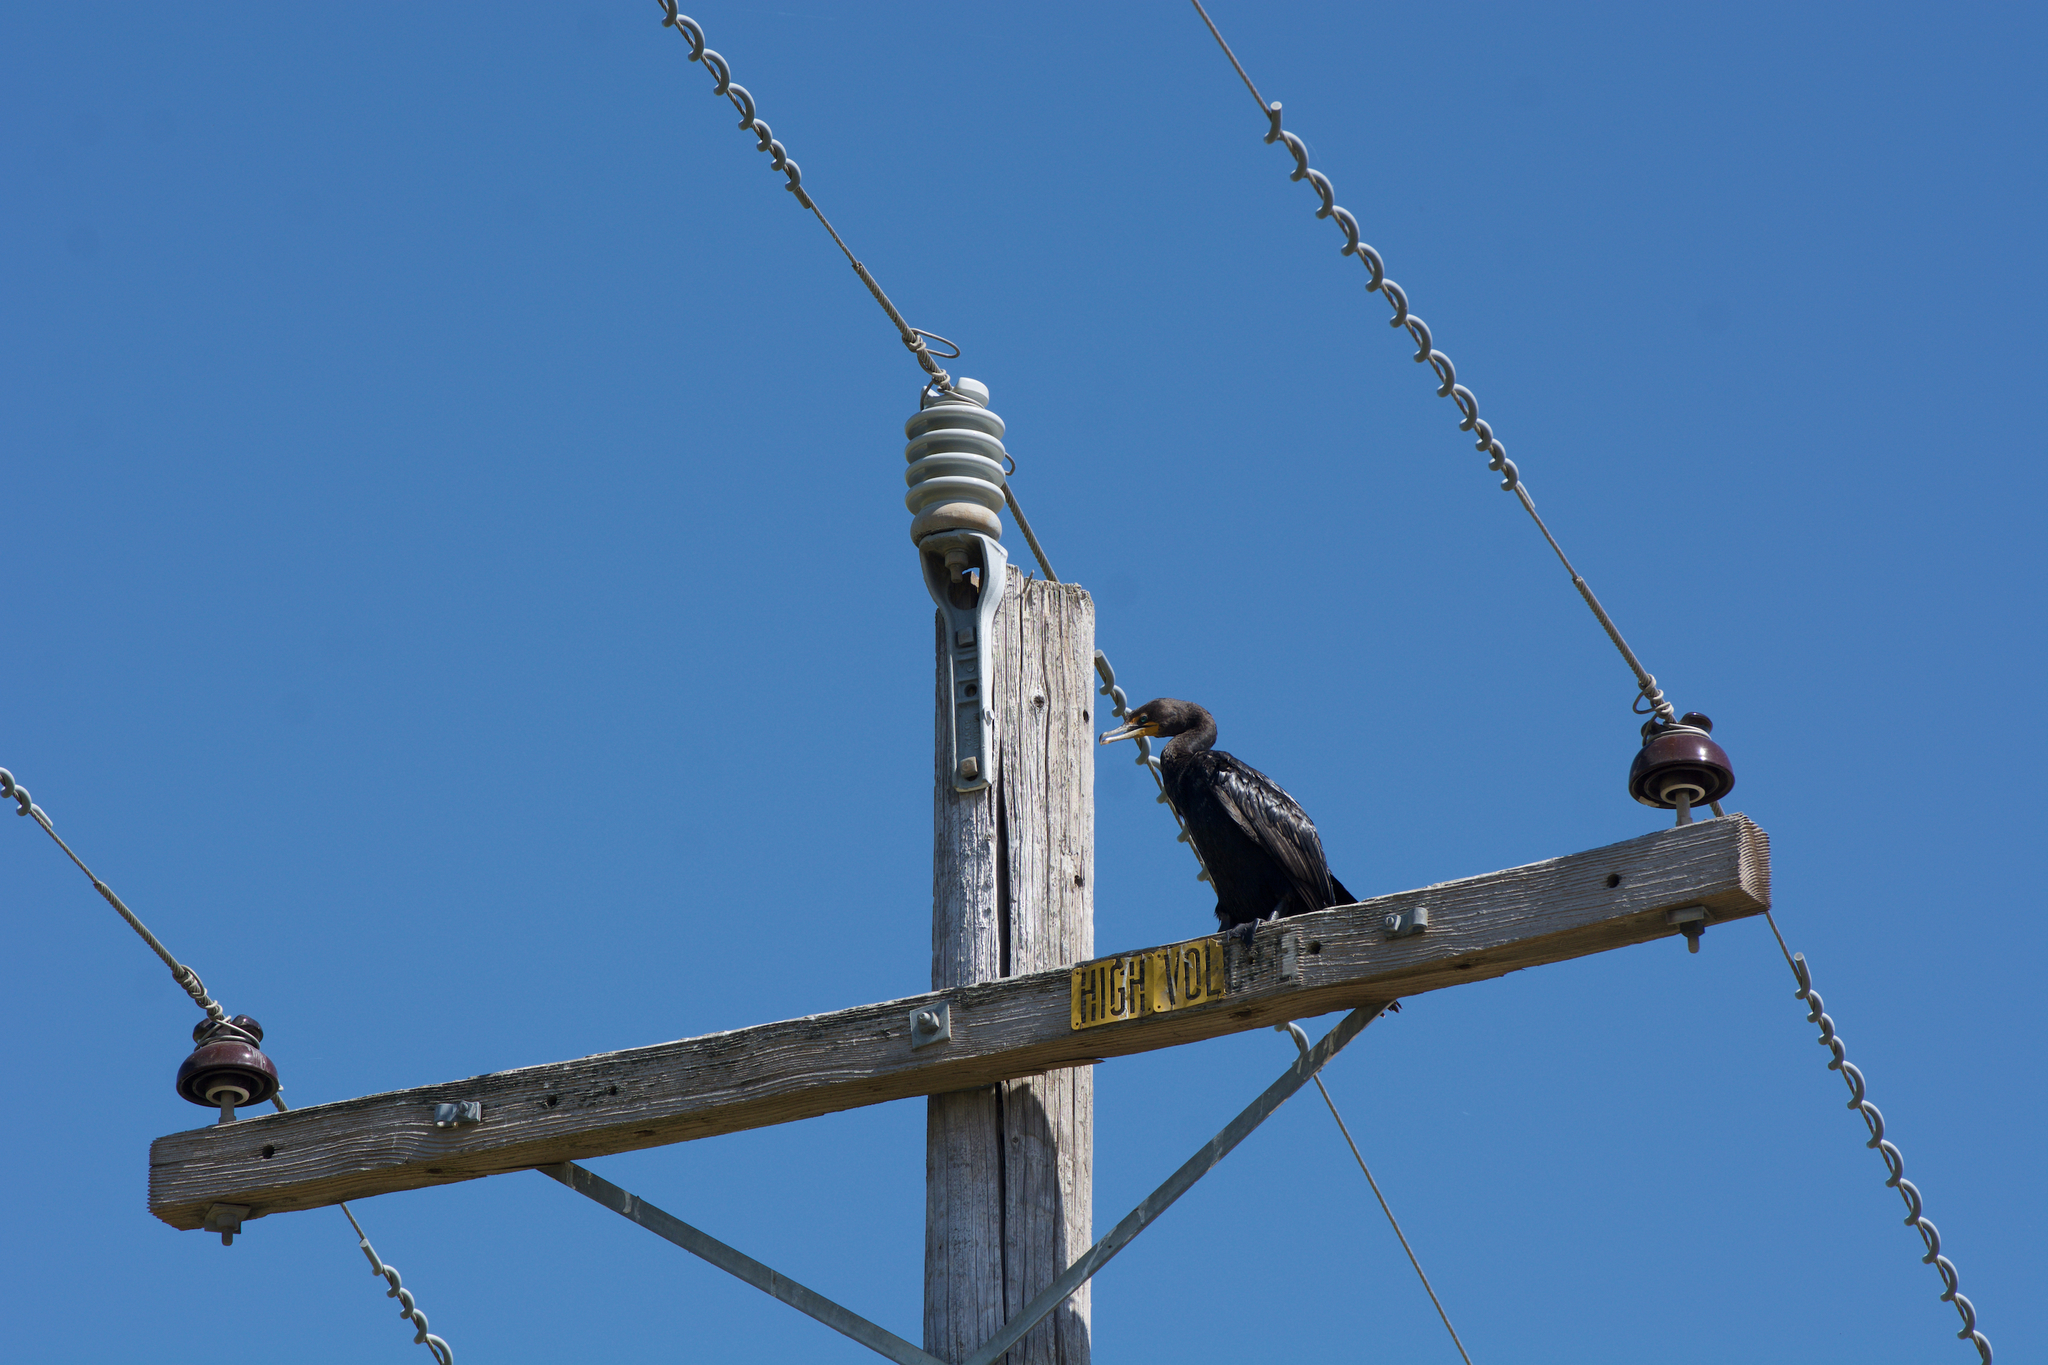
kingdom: Animalia
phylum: Chordata
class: Aves
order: Suliformes
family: Phalacrocoracidae
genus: Phalacrocorax
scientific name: Phalacrocorax auritus
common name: Double-crested cormorant
